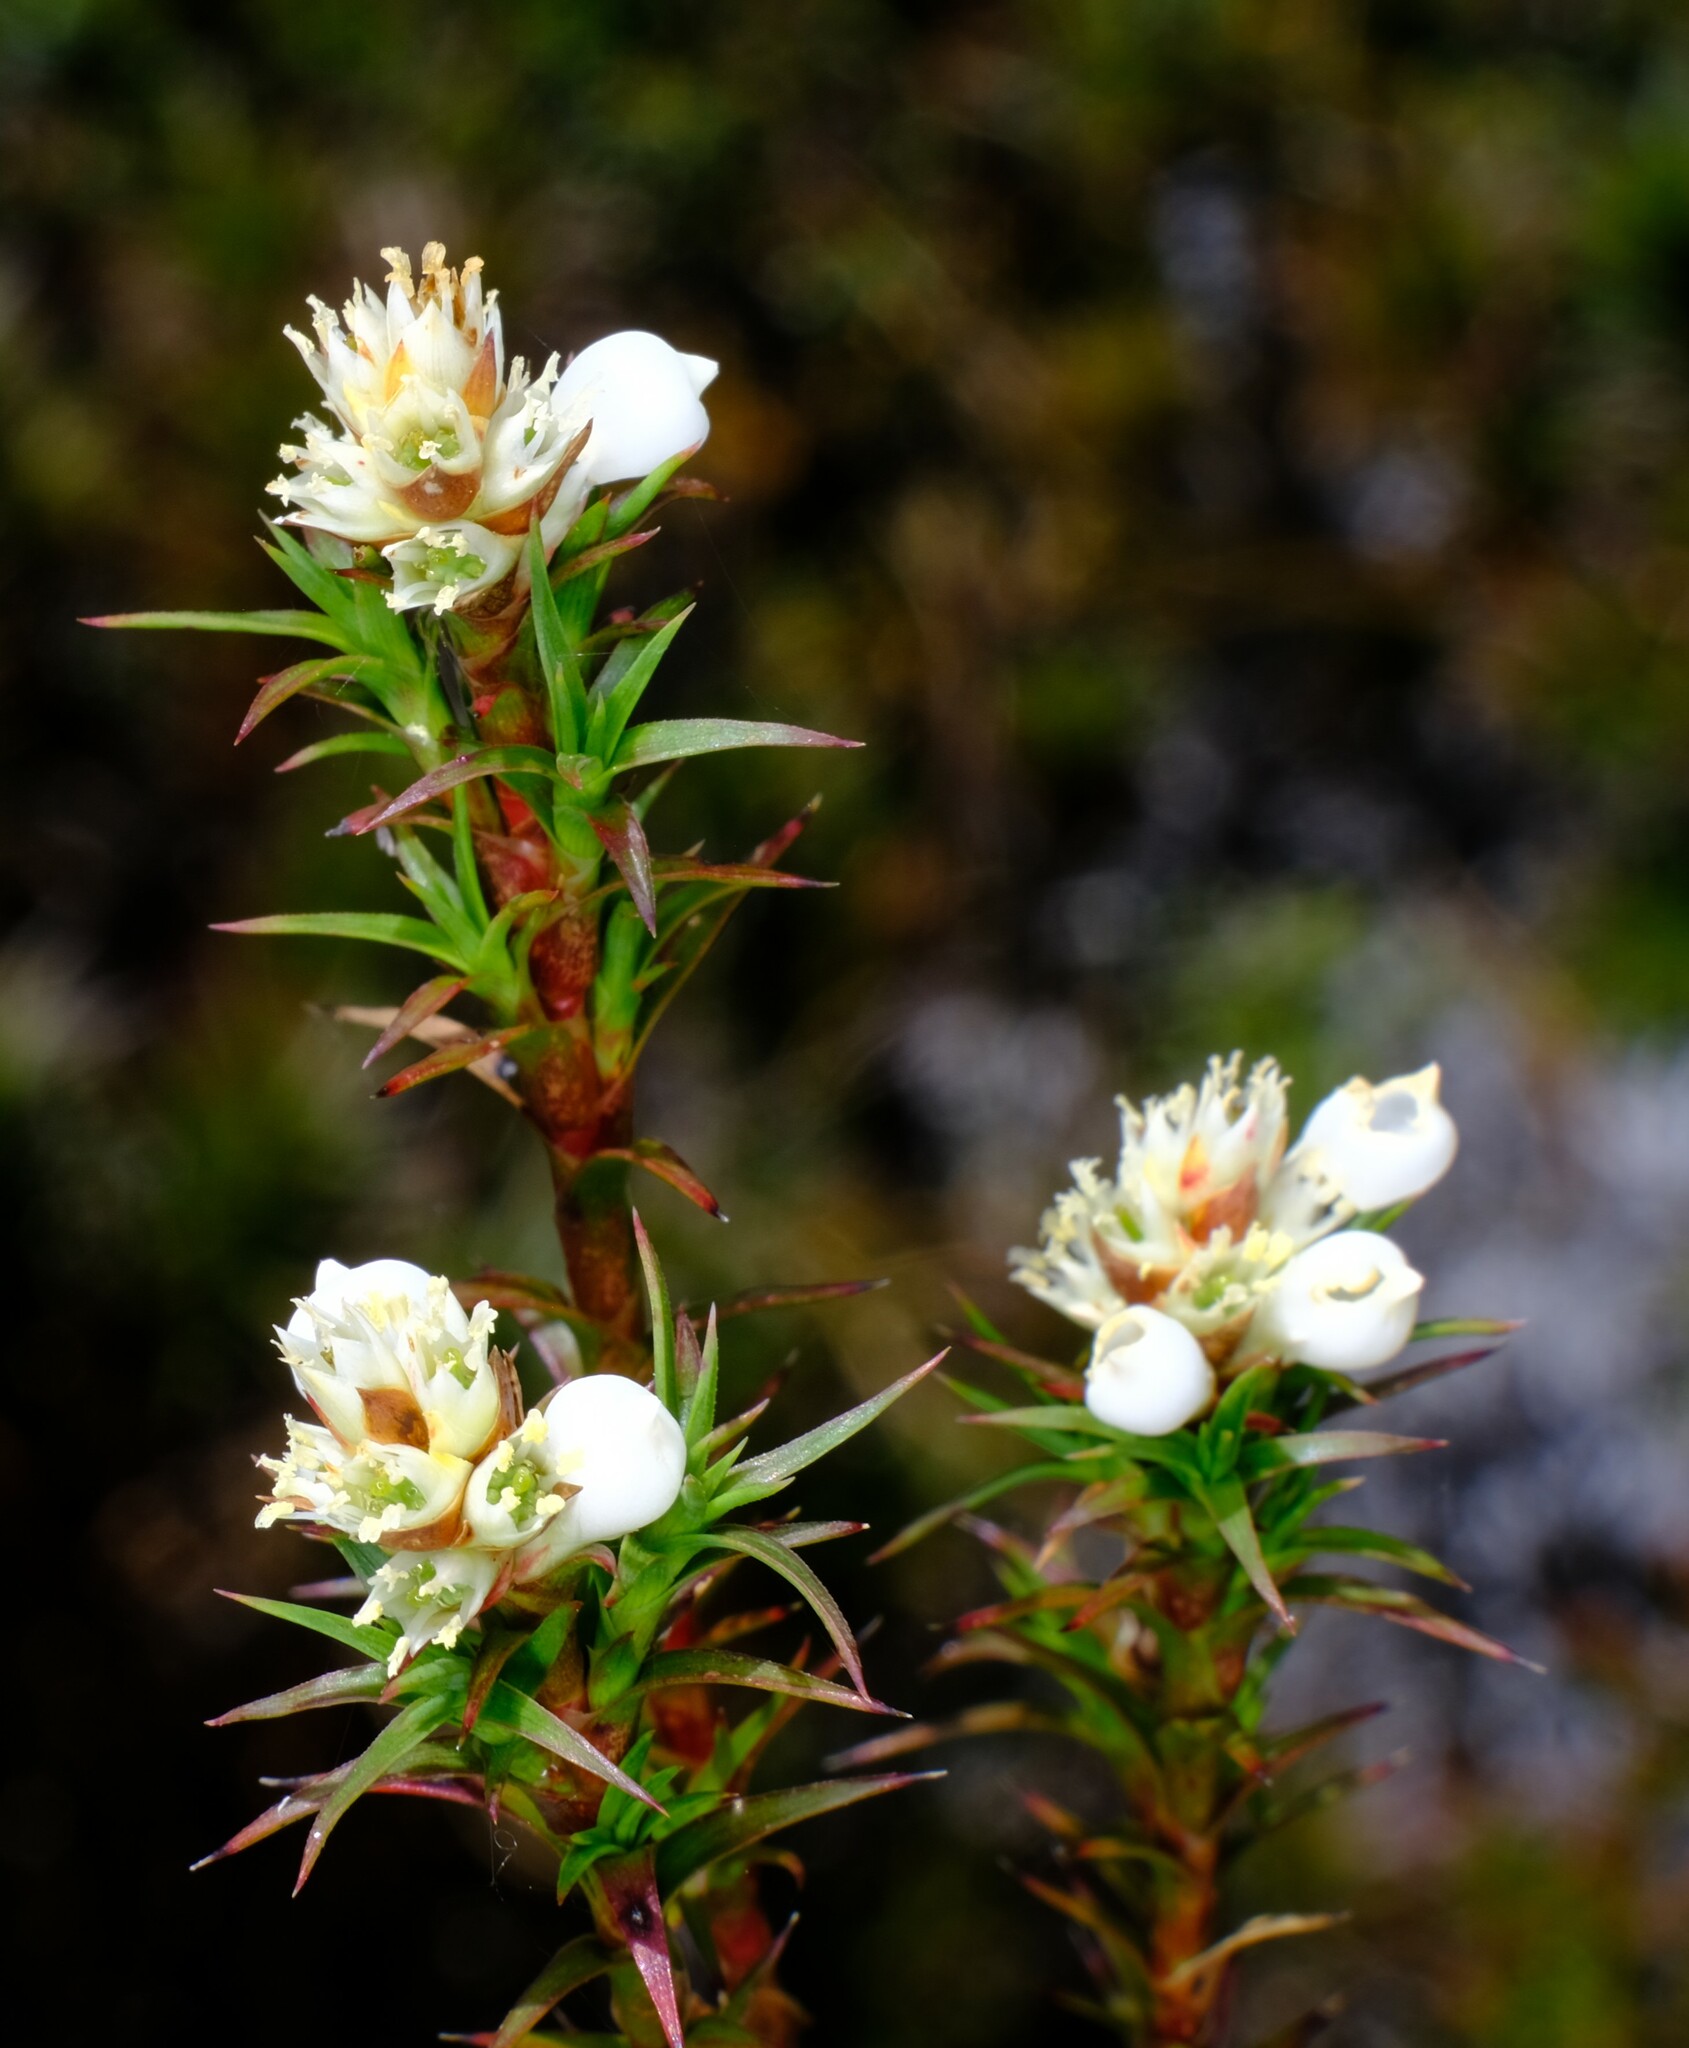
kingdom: Plantae
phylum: Tracheophyta
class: Magnoliopsida
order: Ericales
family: Ericaceae
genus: Dracophyllum
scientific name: Dracophyllum laciniatum
